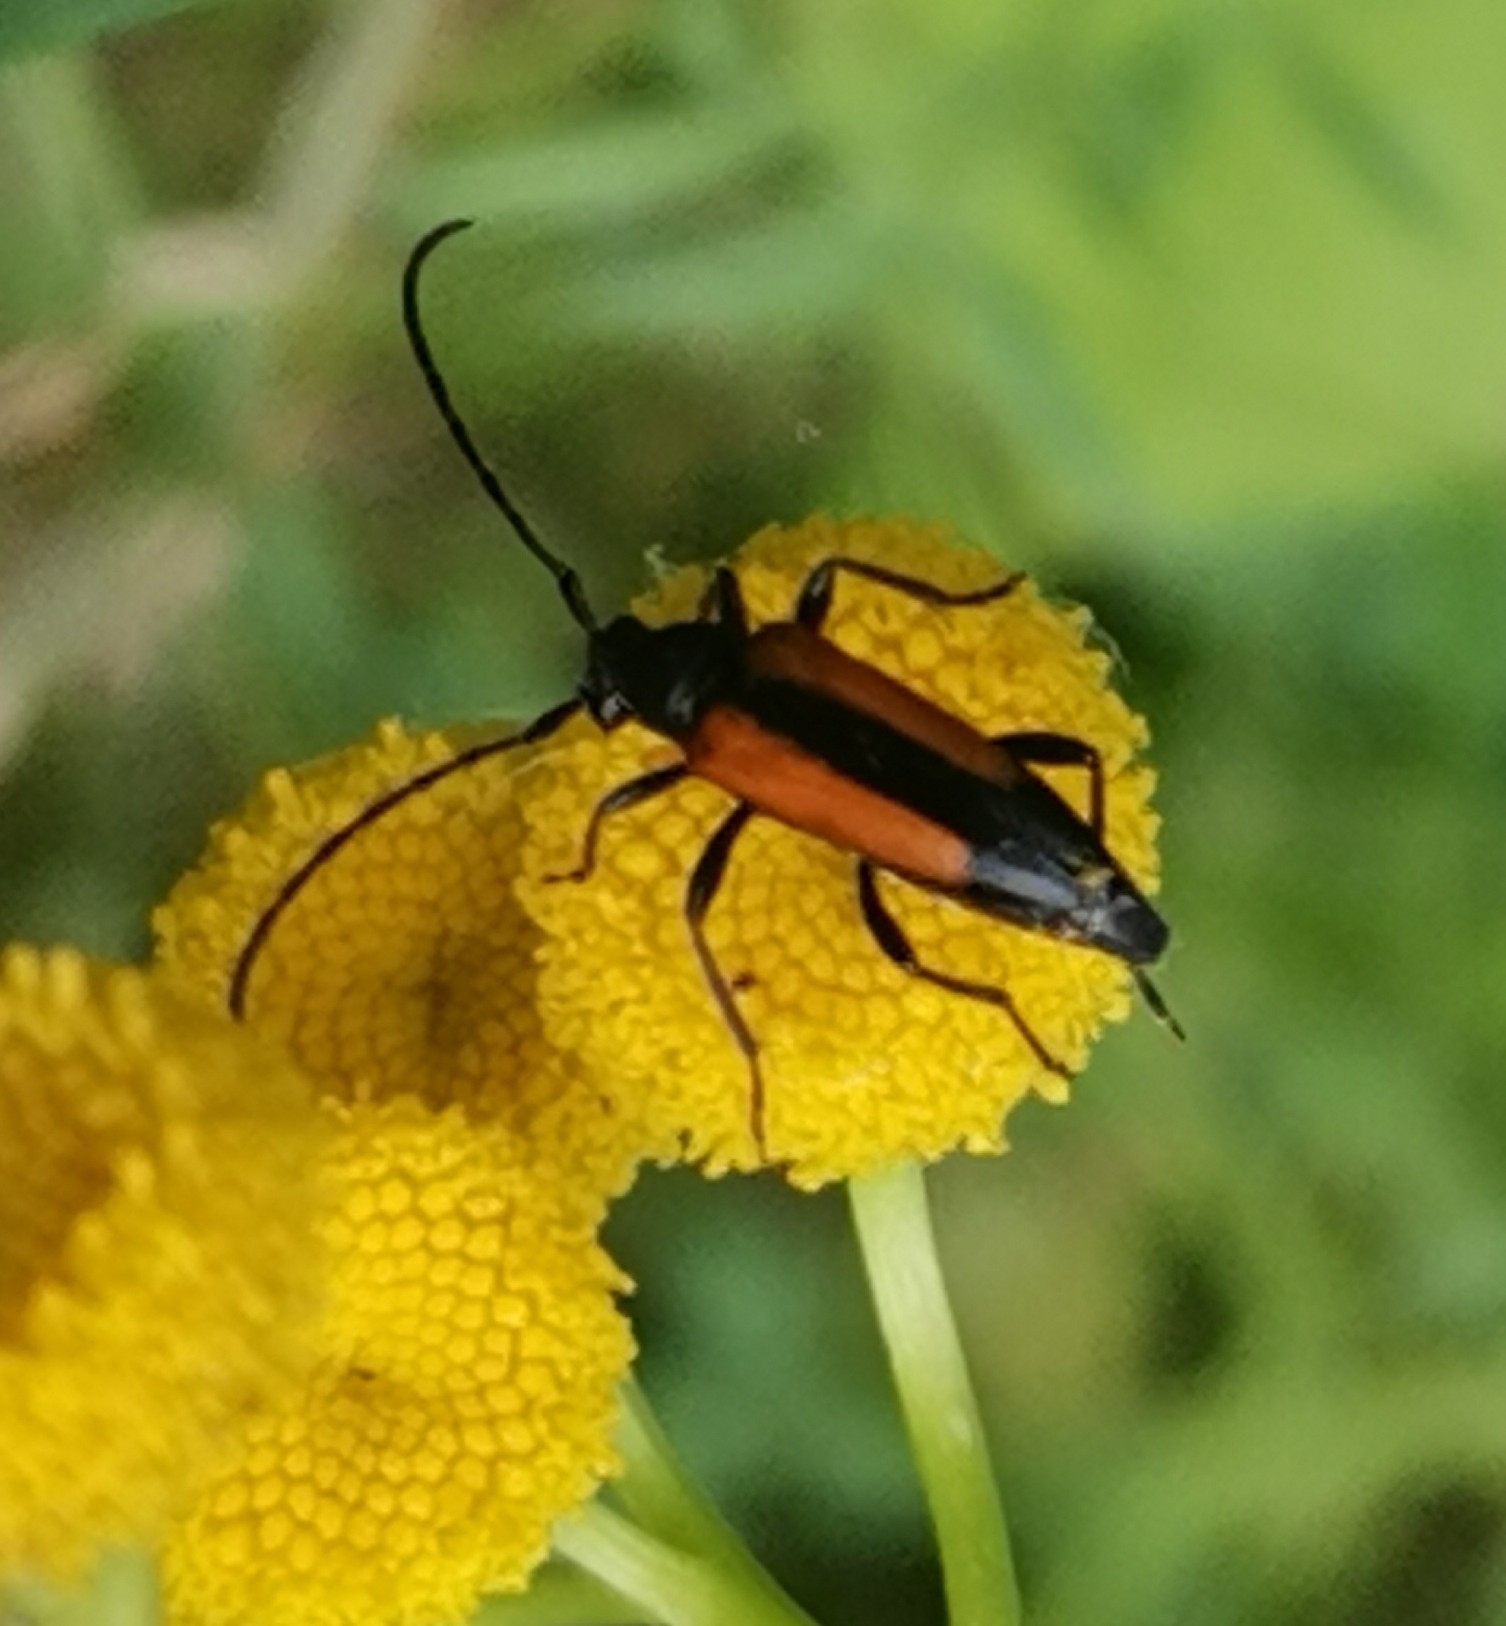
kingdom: Animalia
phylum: Arthropoda
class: Insecta
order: Coleoptera
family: Cerambycidae
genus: Stenurella
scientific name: Stenurella melanura
